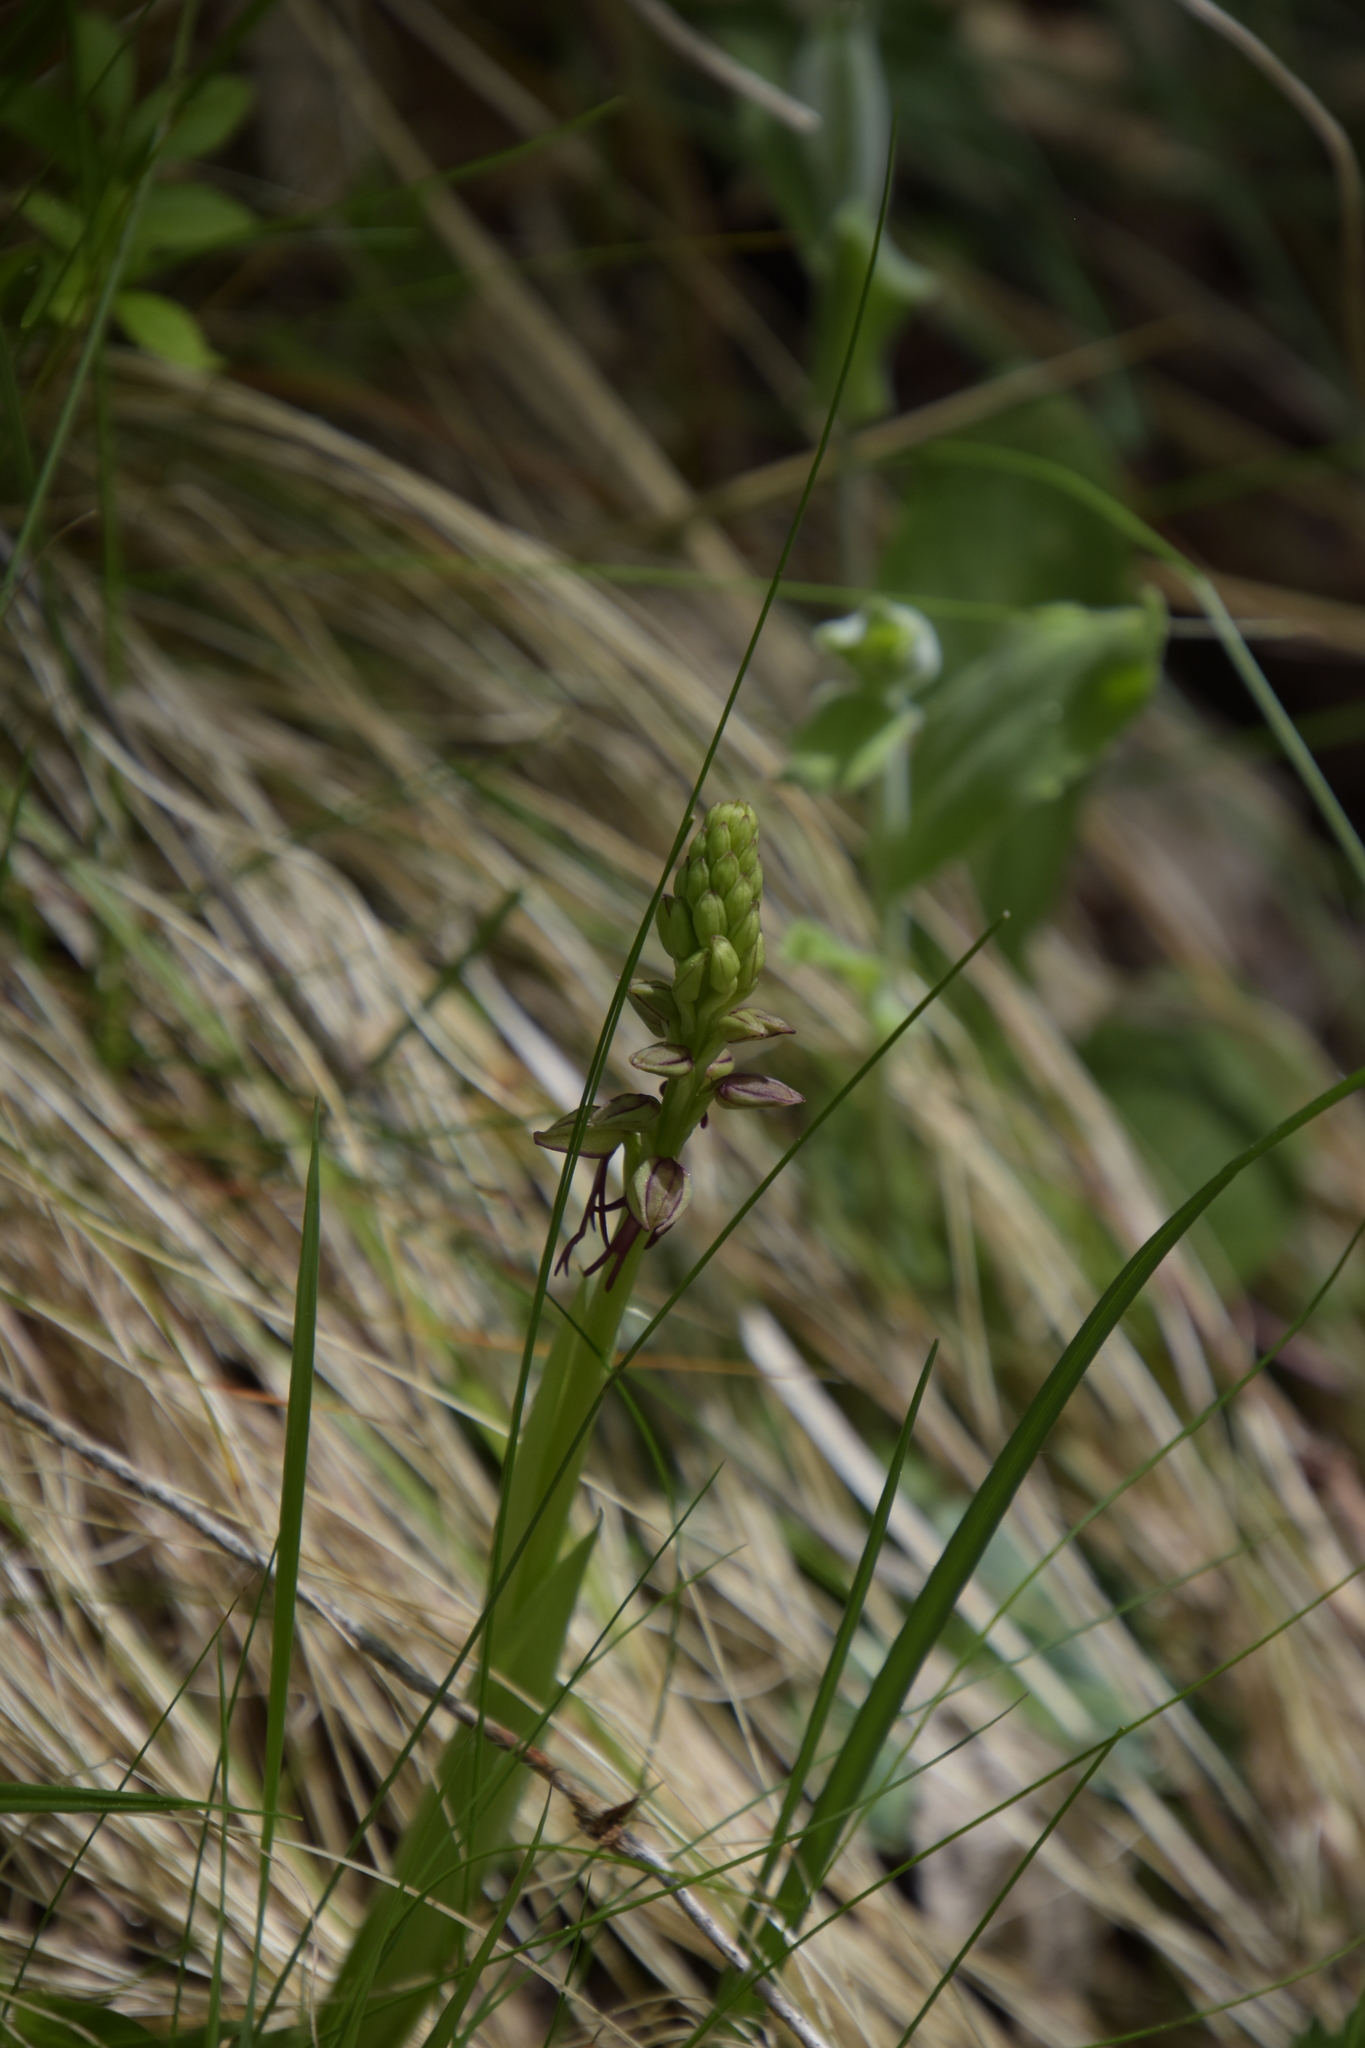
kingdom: Plantae
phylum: Tracheophyta
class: Liliopsida
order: Asparagales
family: Orchidaceae
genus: Orchis
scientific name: Orchis anthropophora
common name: Man orchid
